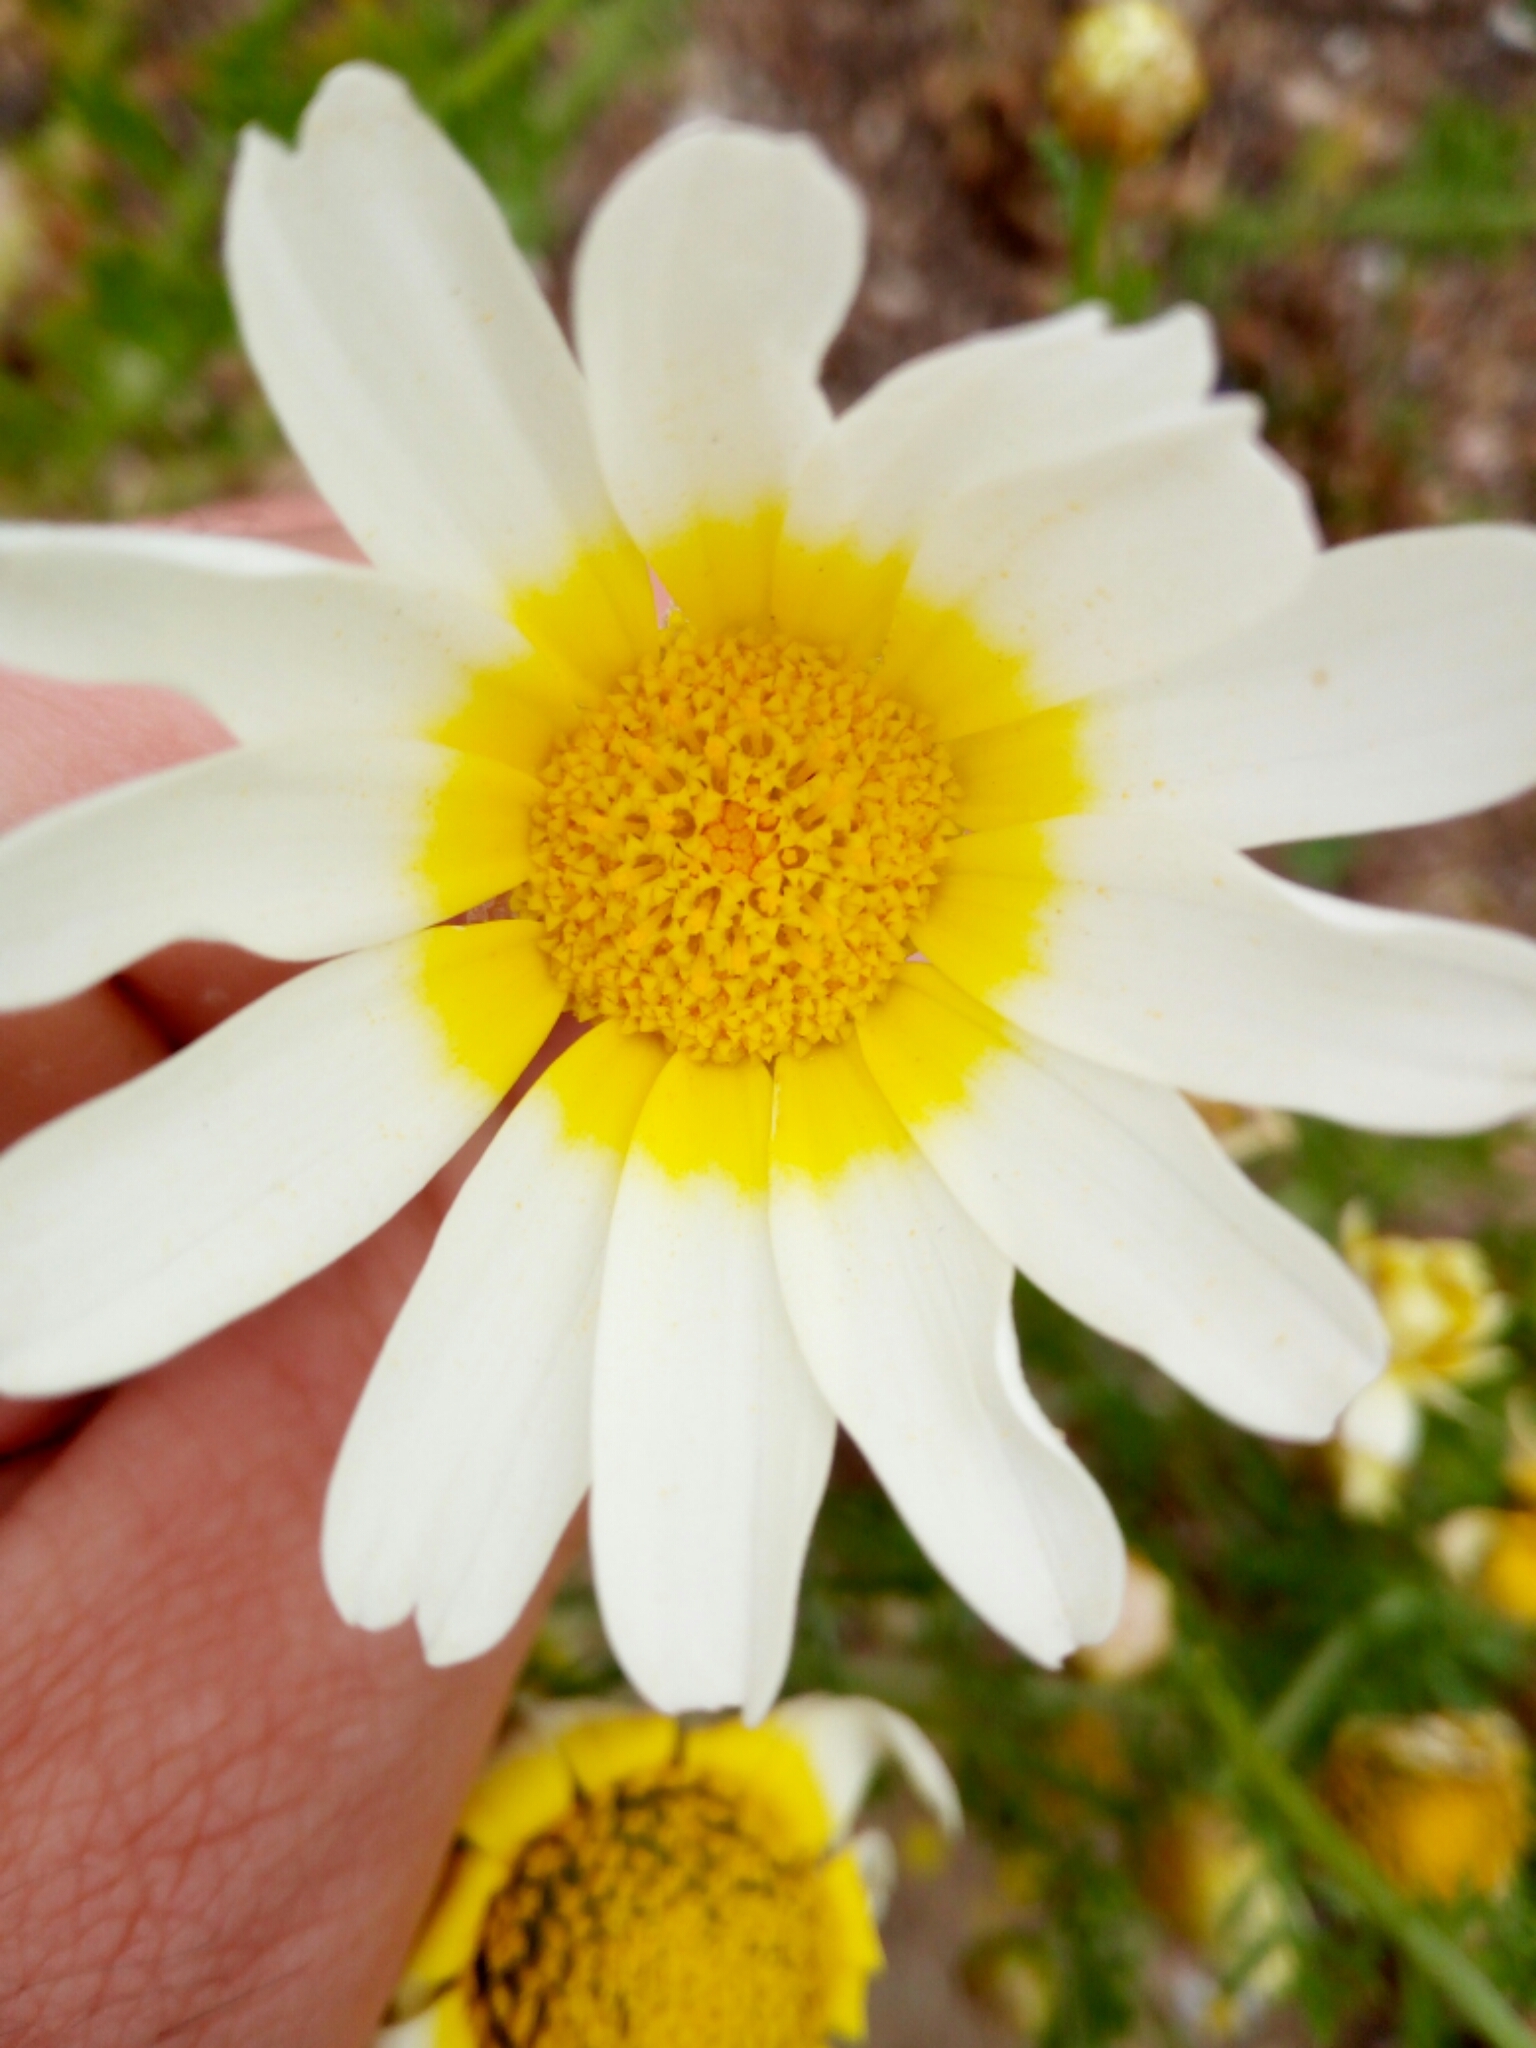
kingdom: Plantae
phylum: Tracheophyta
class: Magnoliopsida
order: Asterales
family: Asteraceae
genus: Glebionis
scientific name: Glebionis coronaria
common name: Crowndaisy
